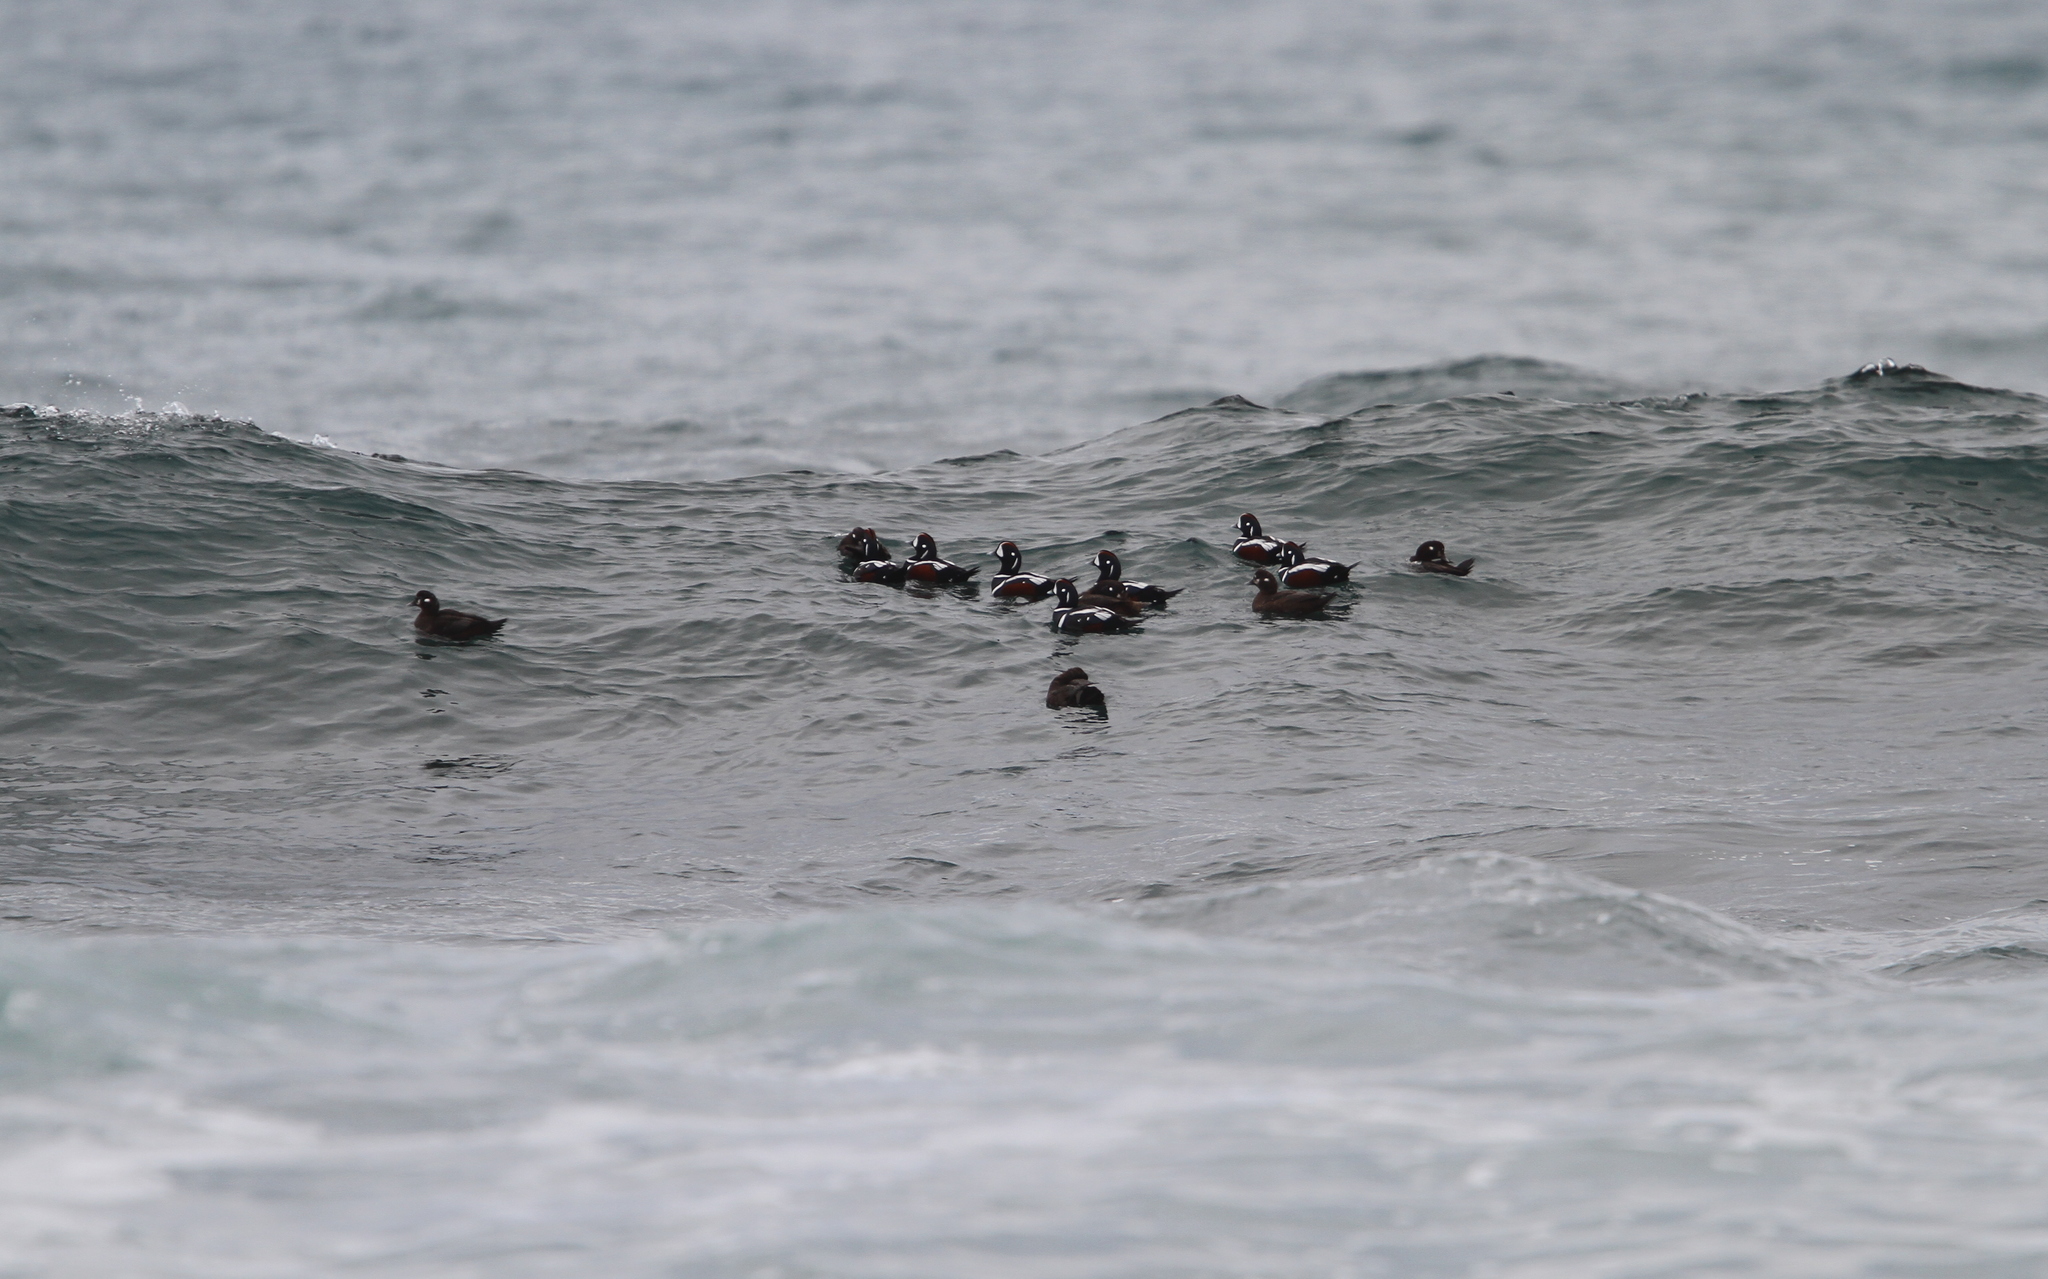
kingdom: Animalia
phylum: Chordata
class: Aves
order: Anseriformes
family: Anatidae
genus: Histrionicus
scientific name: Histrionicus histrionicus
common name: Harlequin duck
